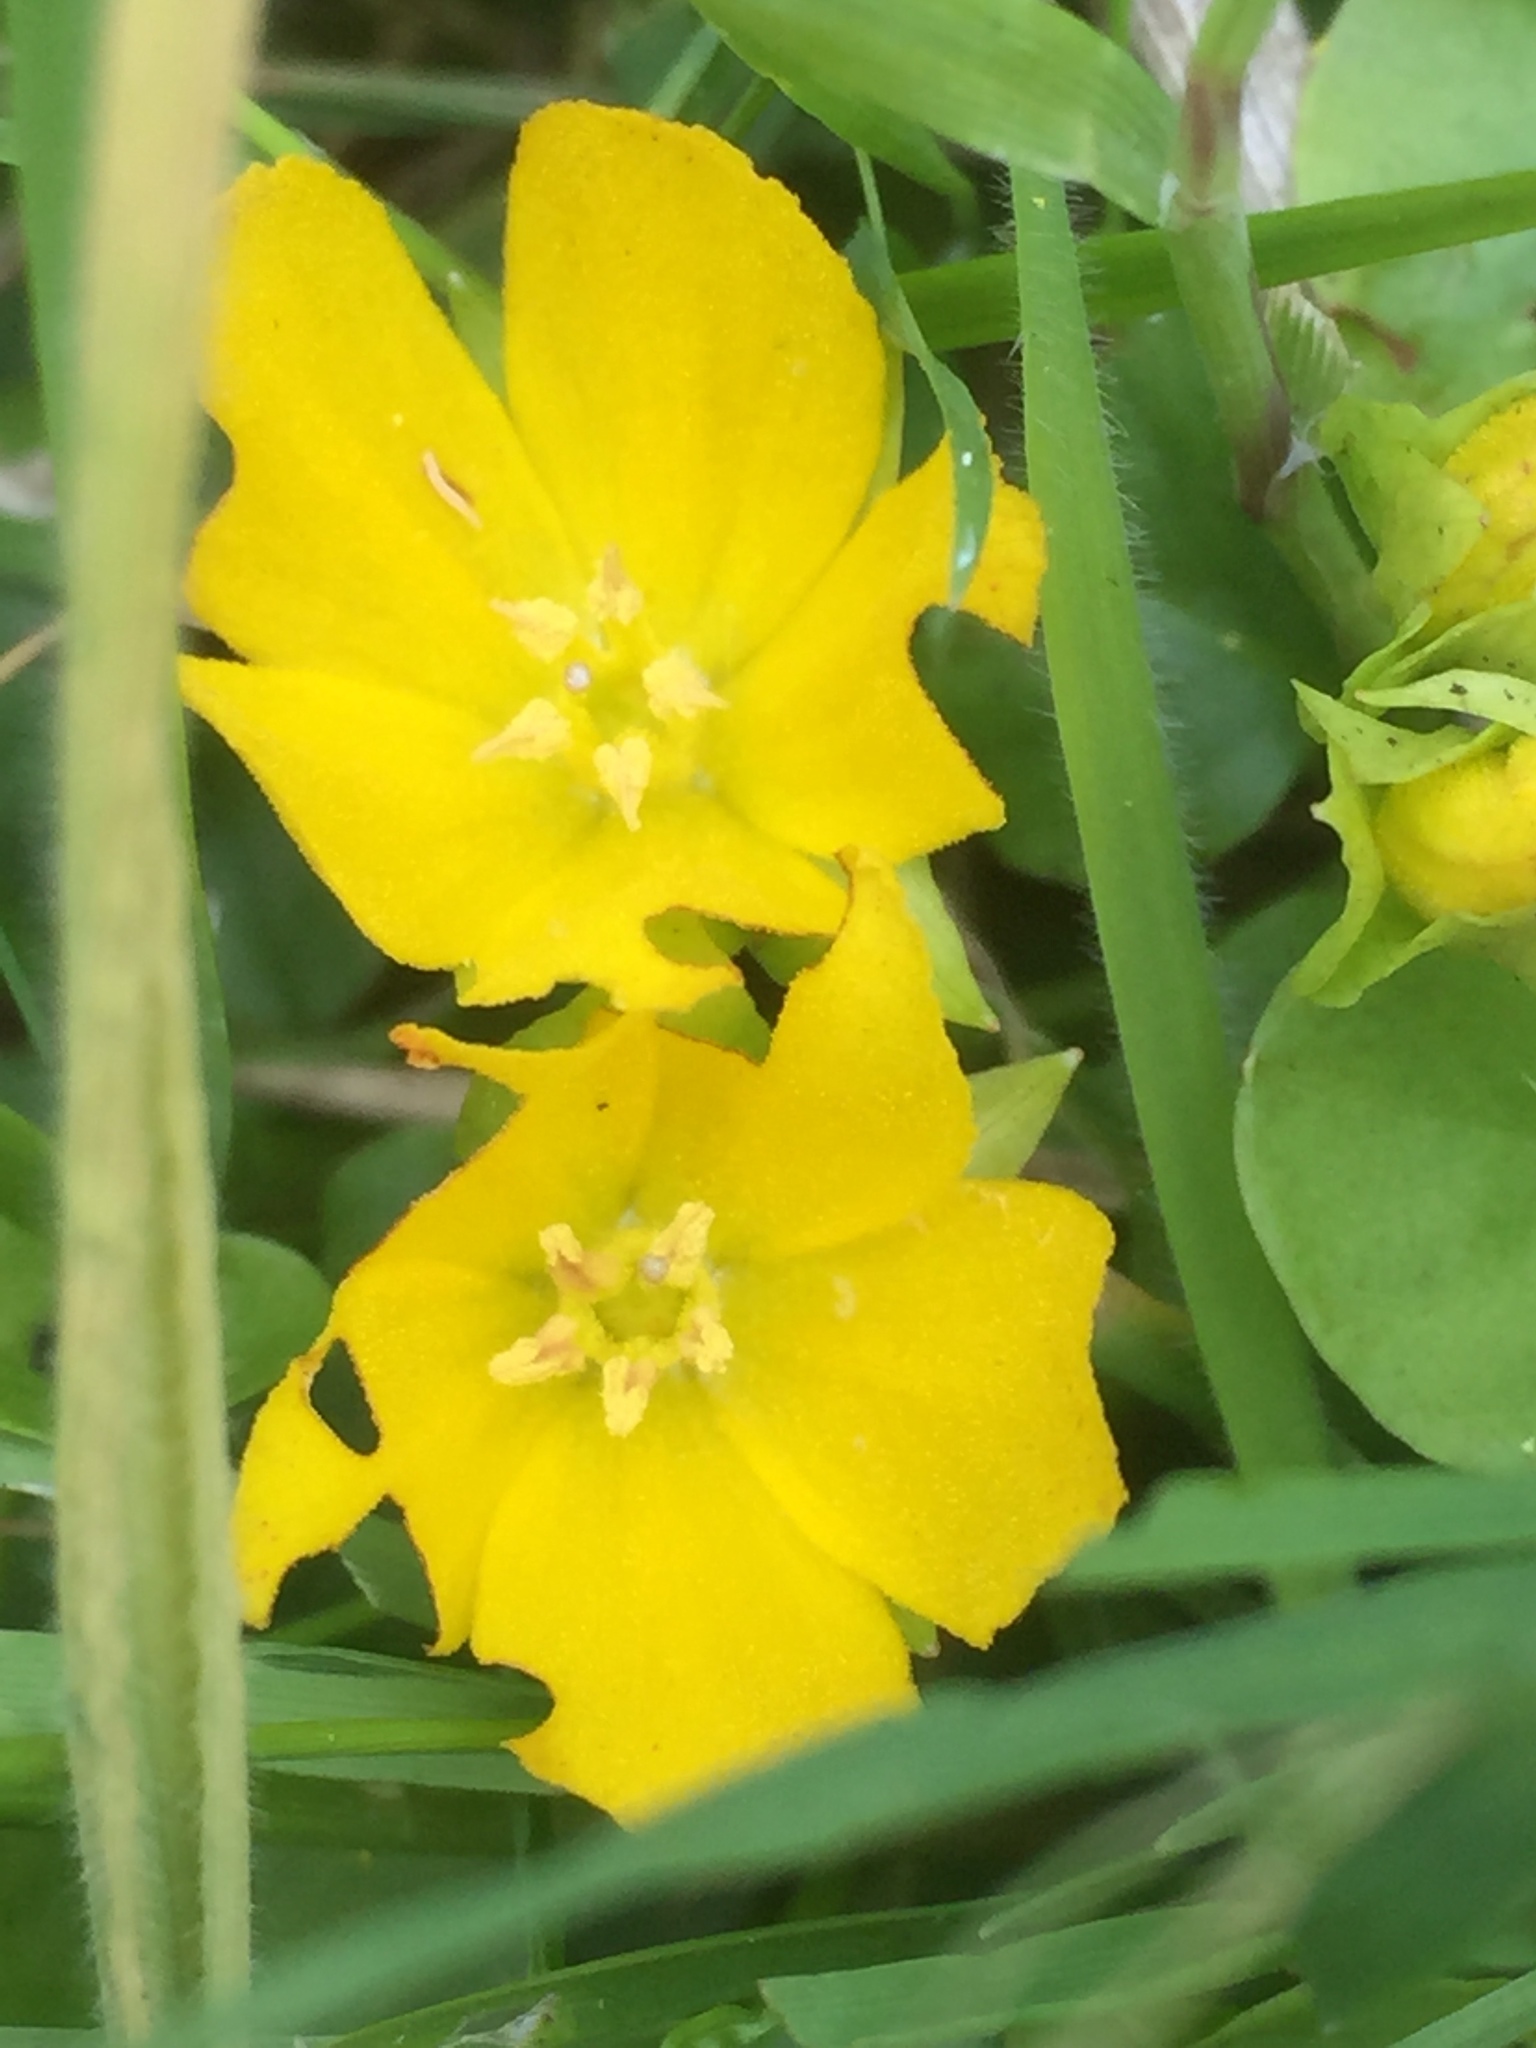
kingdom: Plantae
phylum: Tracheophyta
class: Magnoliopsida
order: Ericales
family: Primulaceae
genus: Lysimachia
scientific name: Lysimachia nummularia
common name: Moneywort
